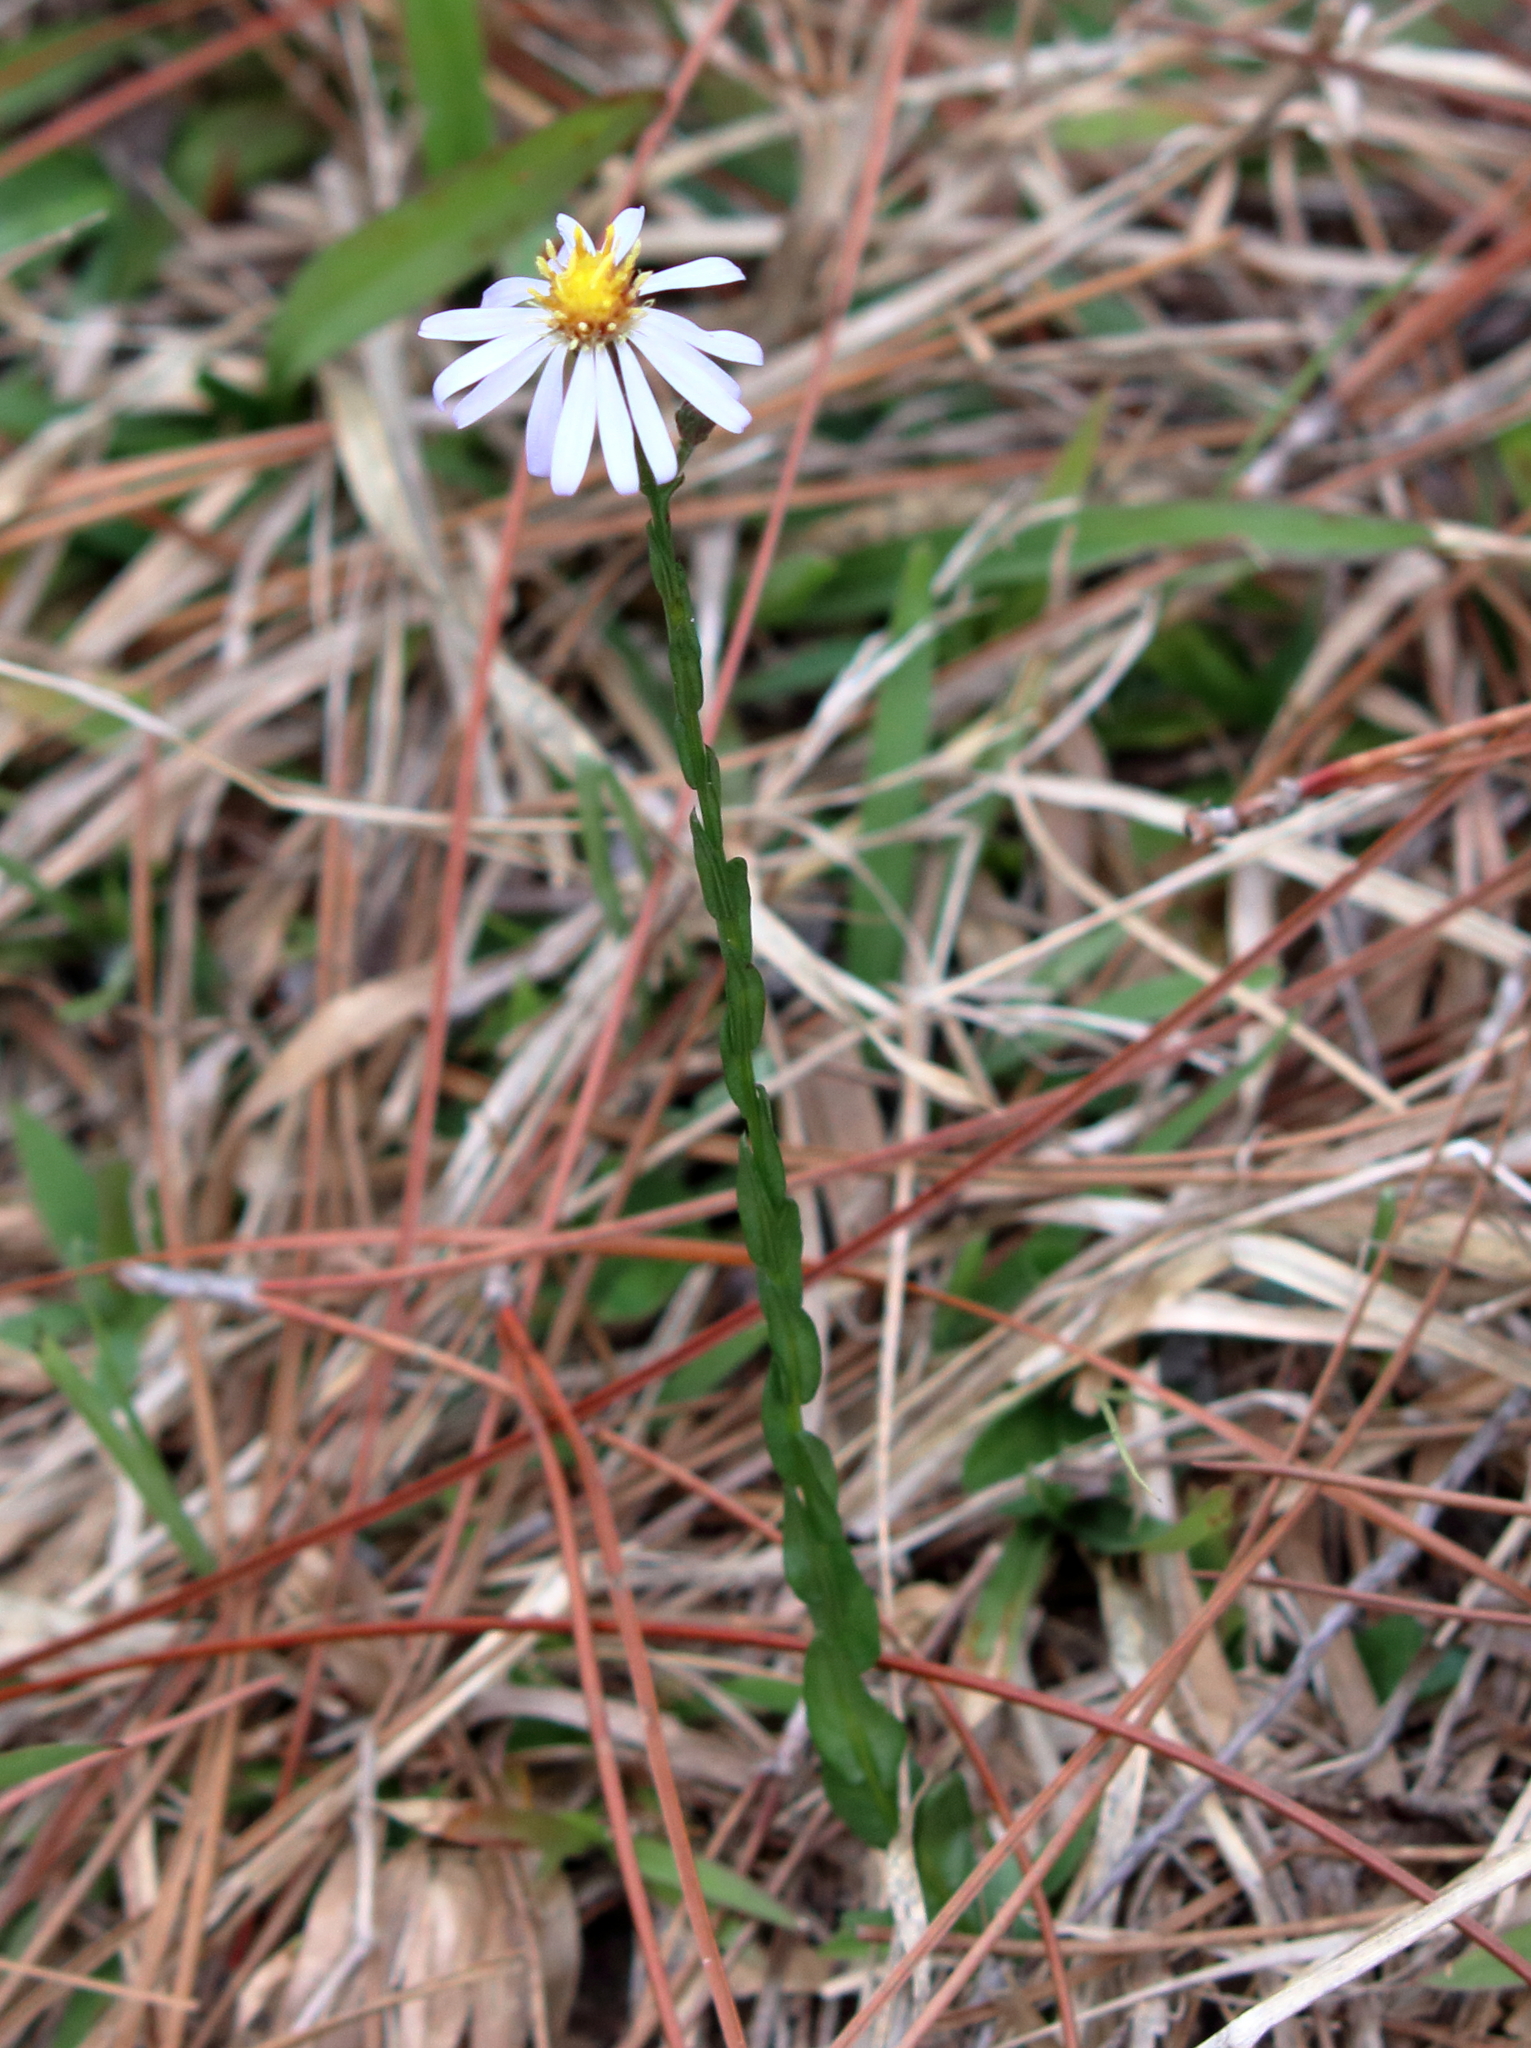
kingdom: Plantae
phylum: Tracheophyta
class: Magnoliopsida
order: Asterales
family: Asteraceae
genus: Symphyotrichum
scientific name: Symphyotrichum adnatum
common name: Scale-leaf aster
